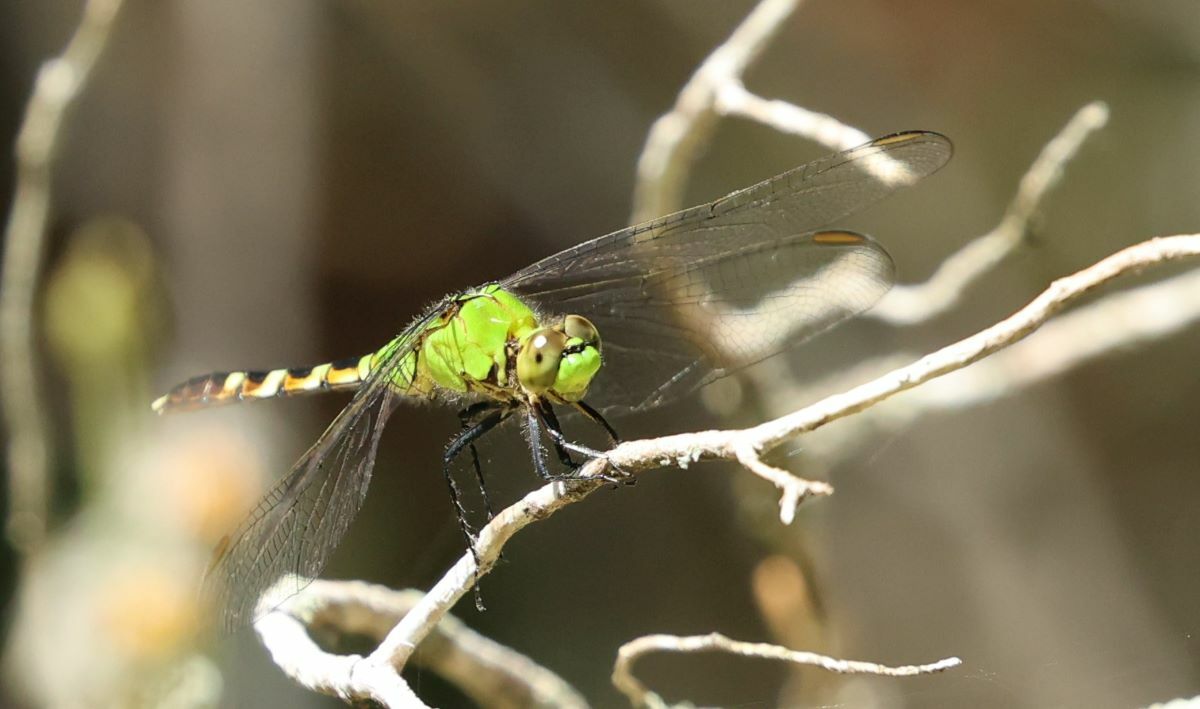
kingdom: Animalia
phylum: Arthropoda
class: Insecta
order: Odonata
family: Libellulidae
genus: Erythemis
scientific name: Erythemis simplicicollis
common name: Eastern pondhawk
